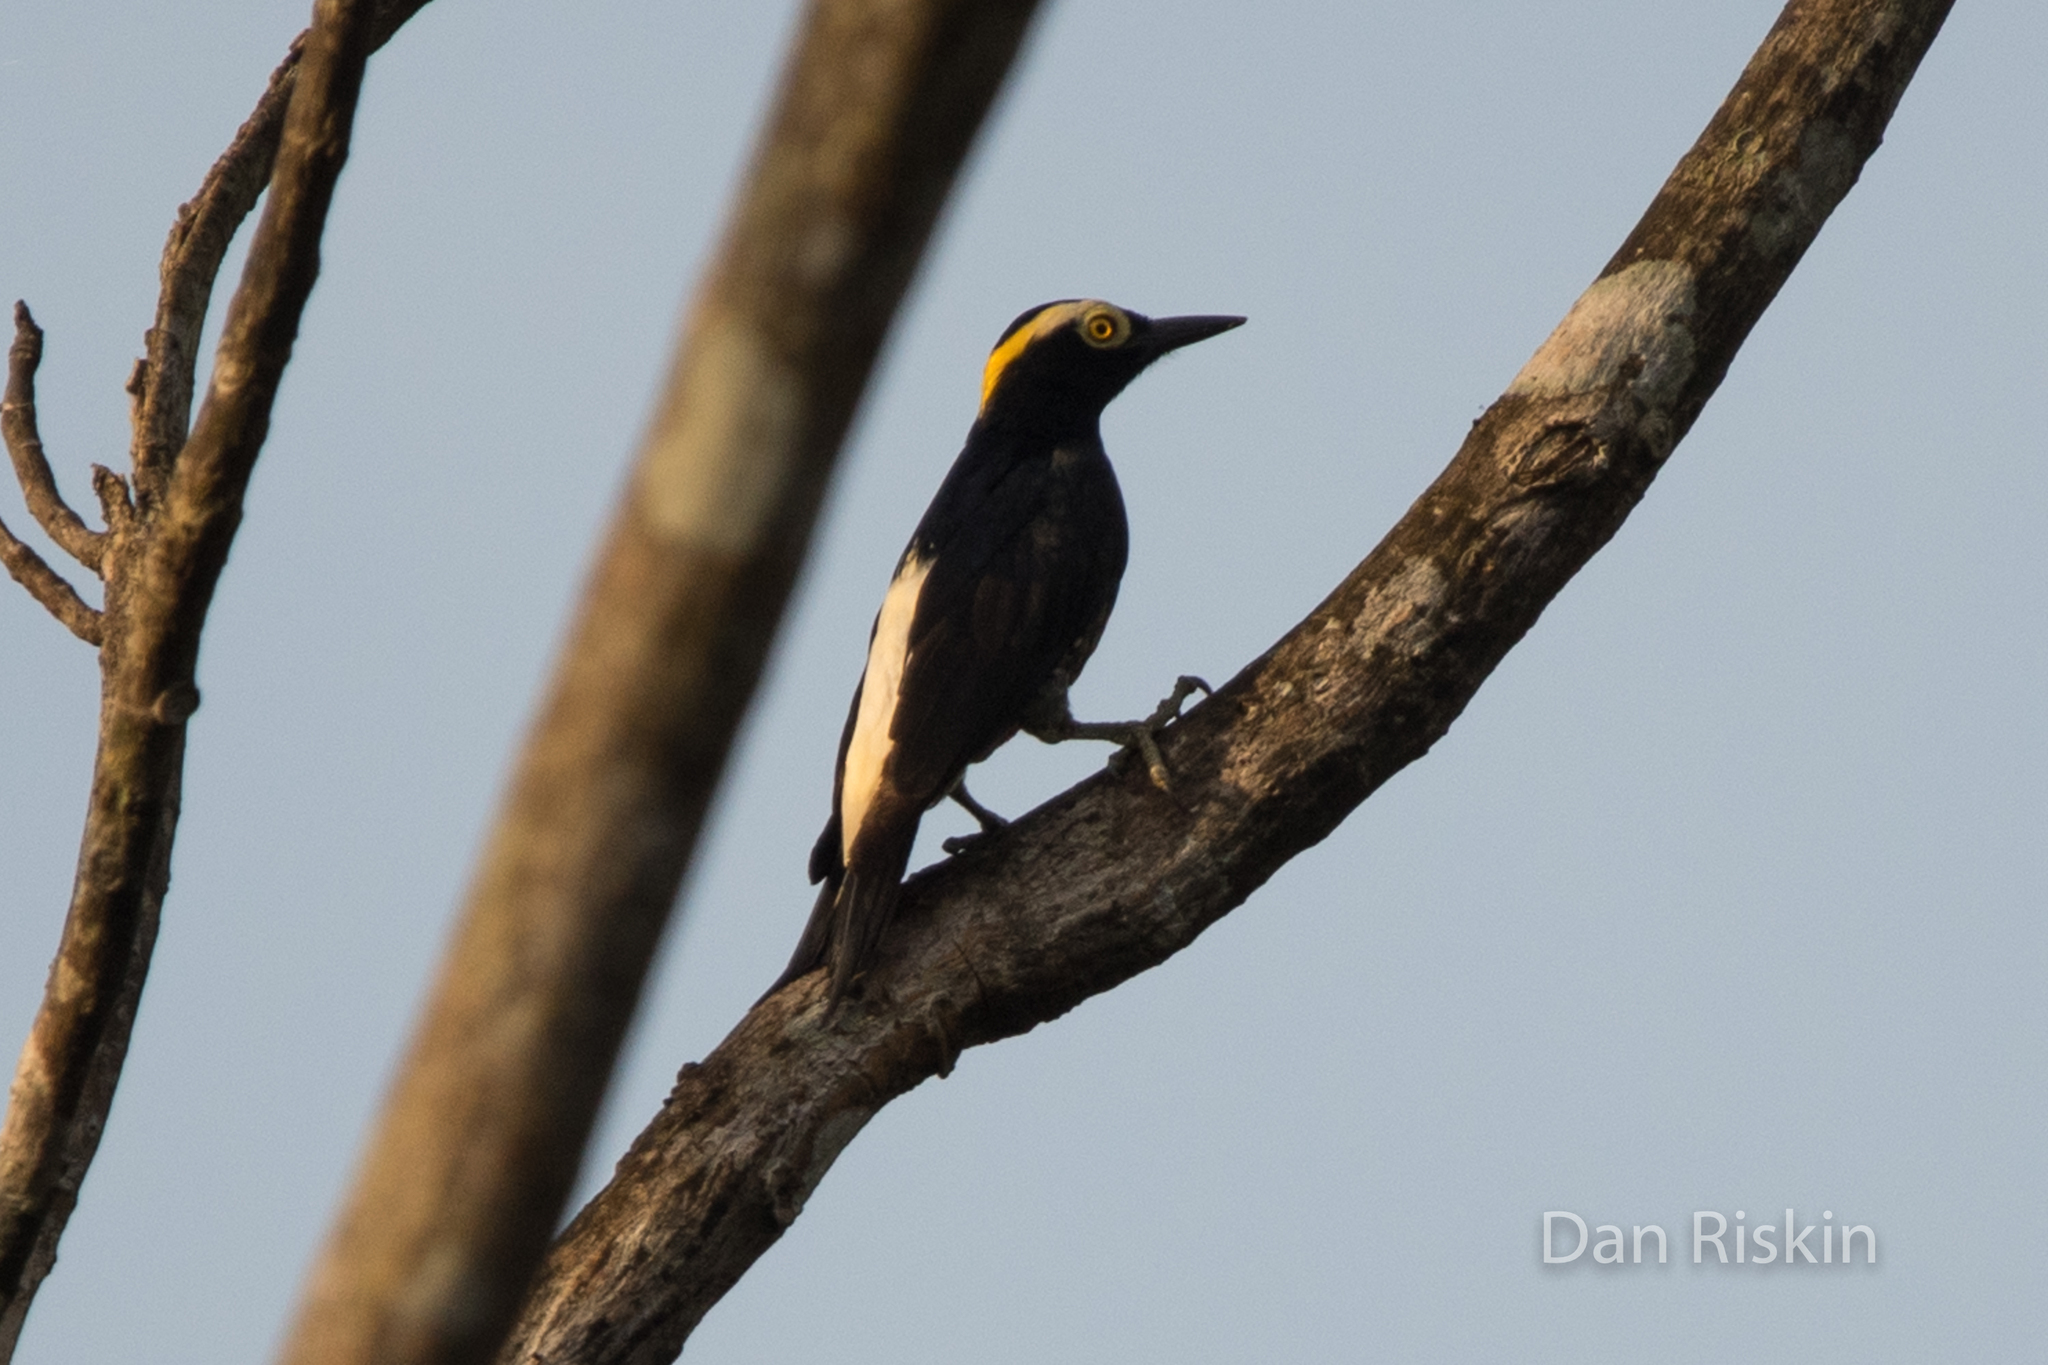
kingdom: Animalia
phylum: Chordata
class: Aves
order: Piciformes
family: Picidae
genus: Melanerpes
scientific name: Melanerpes cruentatus
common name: Yellow-tufted woodpecker
